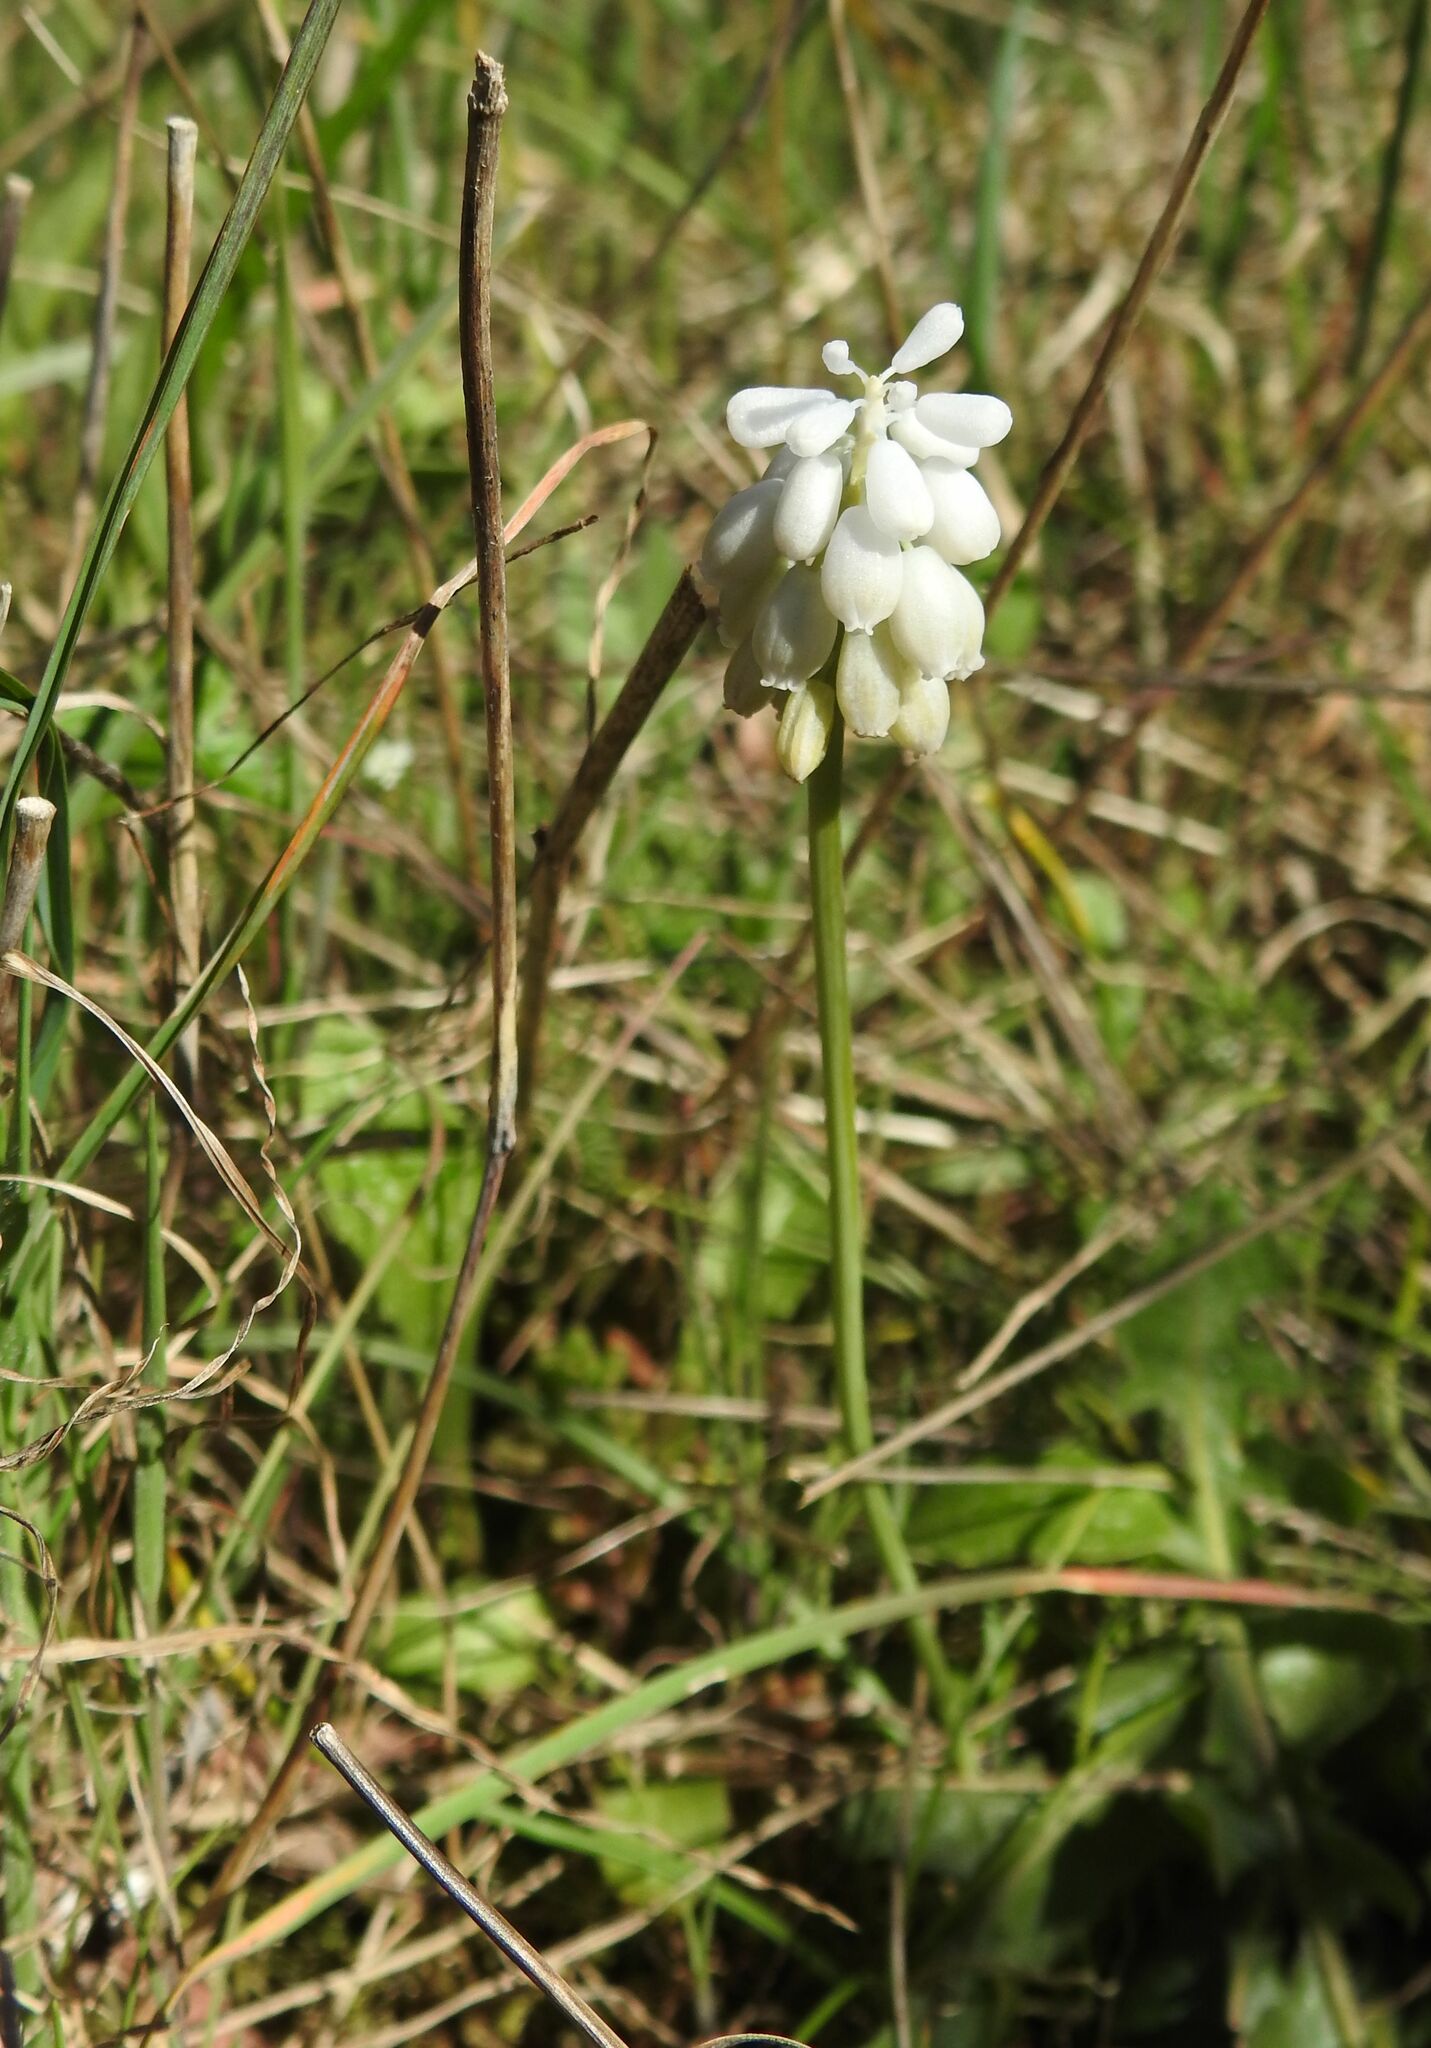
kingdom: Plantae
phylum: Tracheophyta
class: Liliopsida
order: Asparagales
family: Asparagaceae
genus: Muscari
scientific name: Muscari neglectum
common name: Grape-hyacinth
